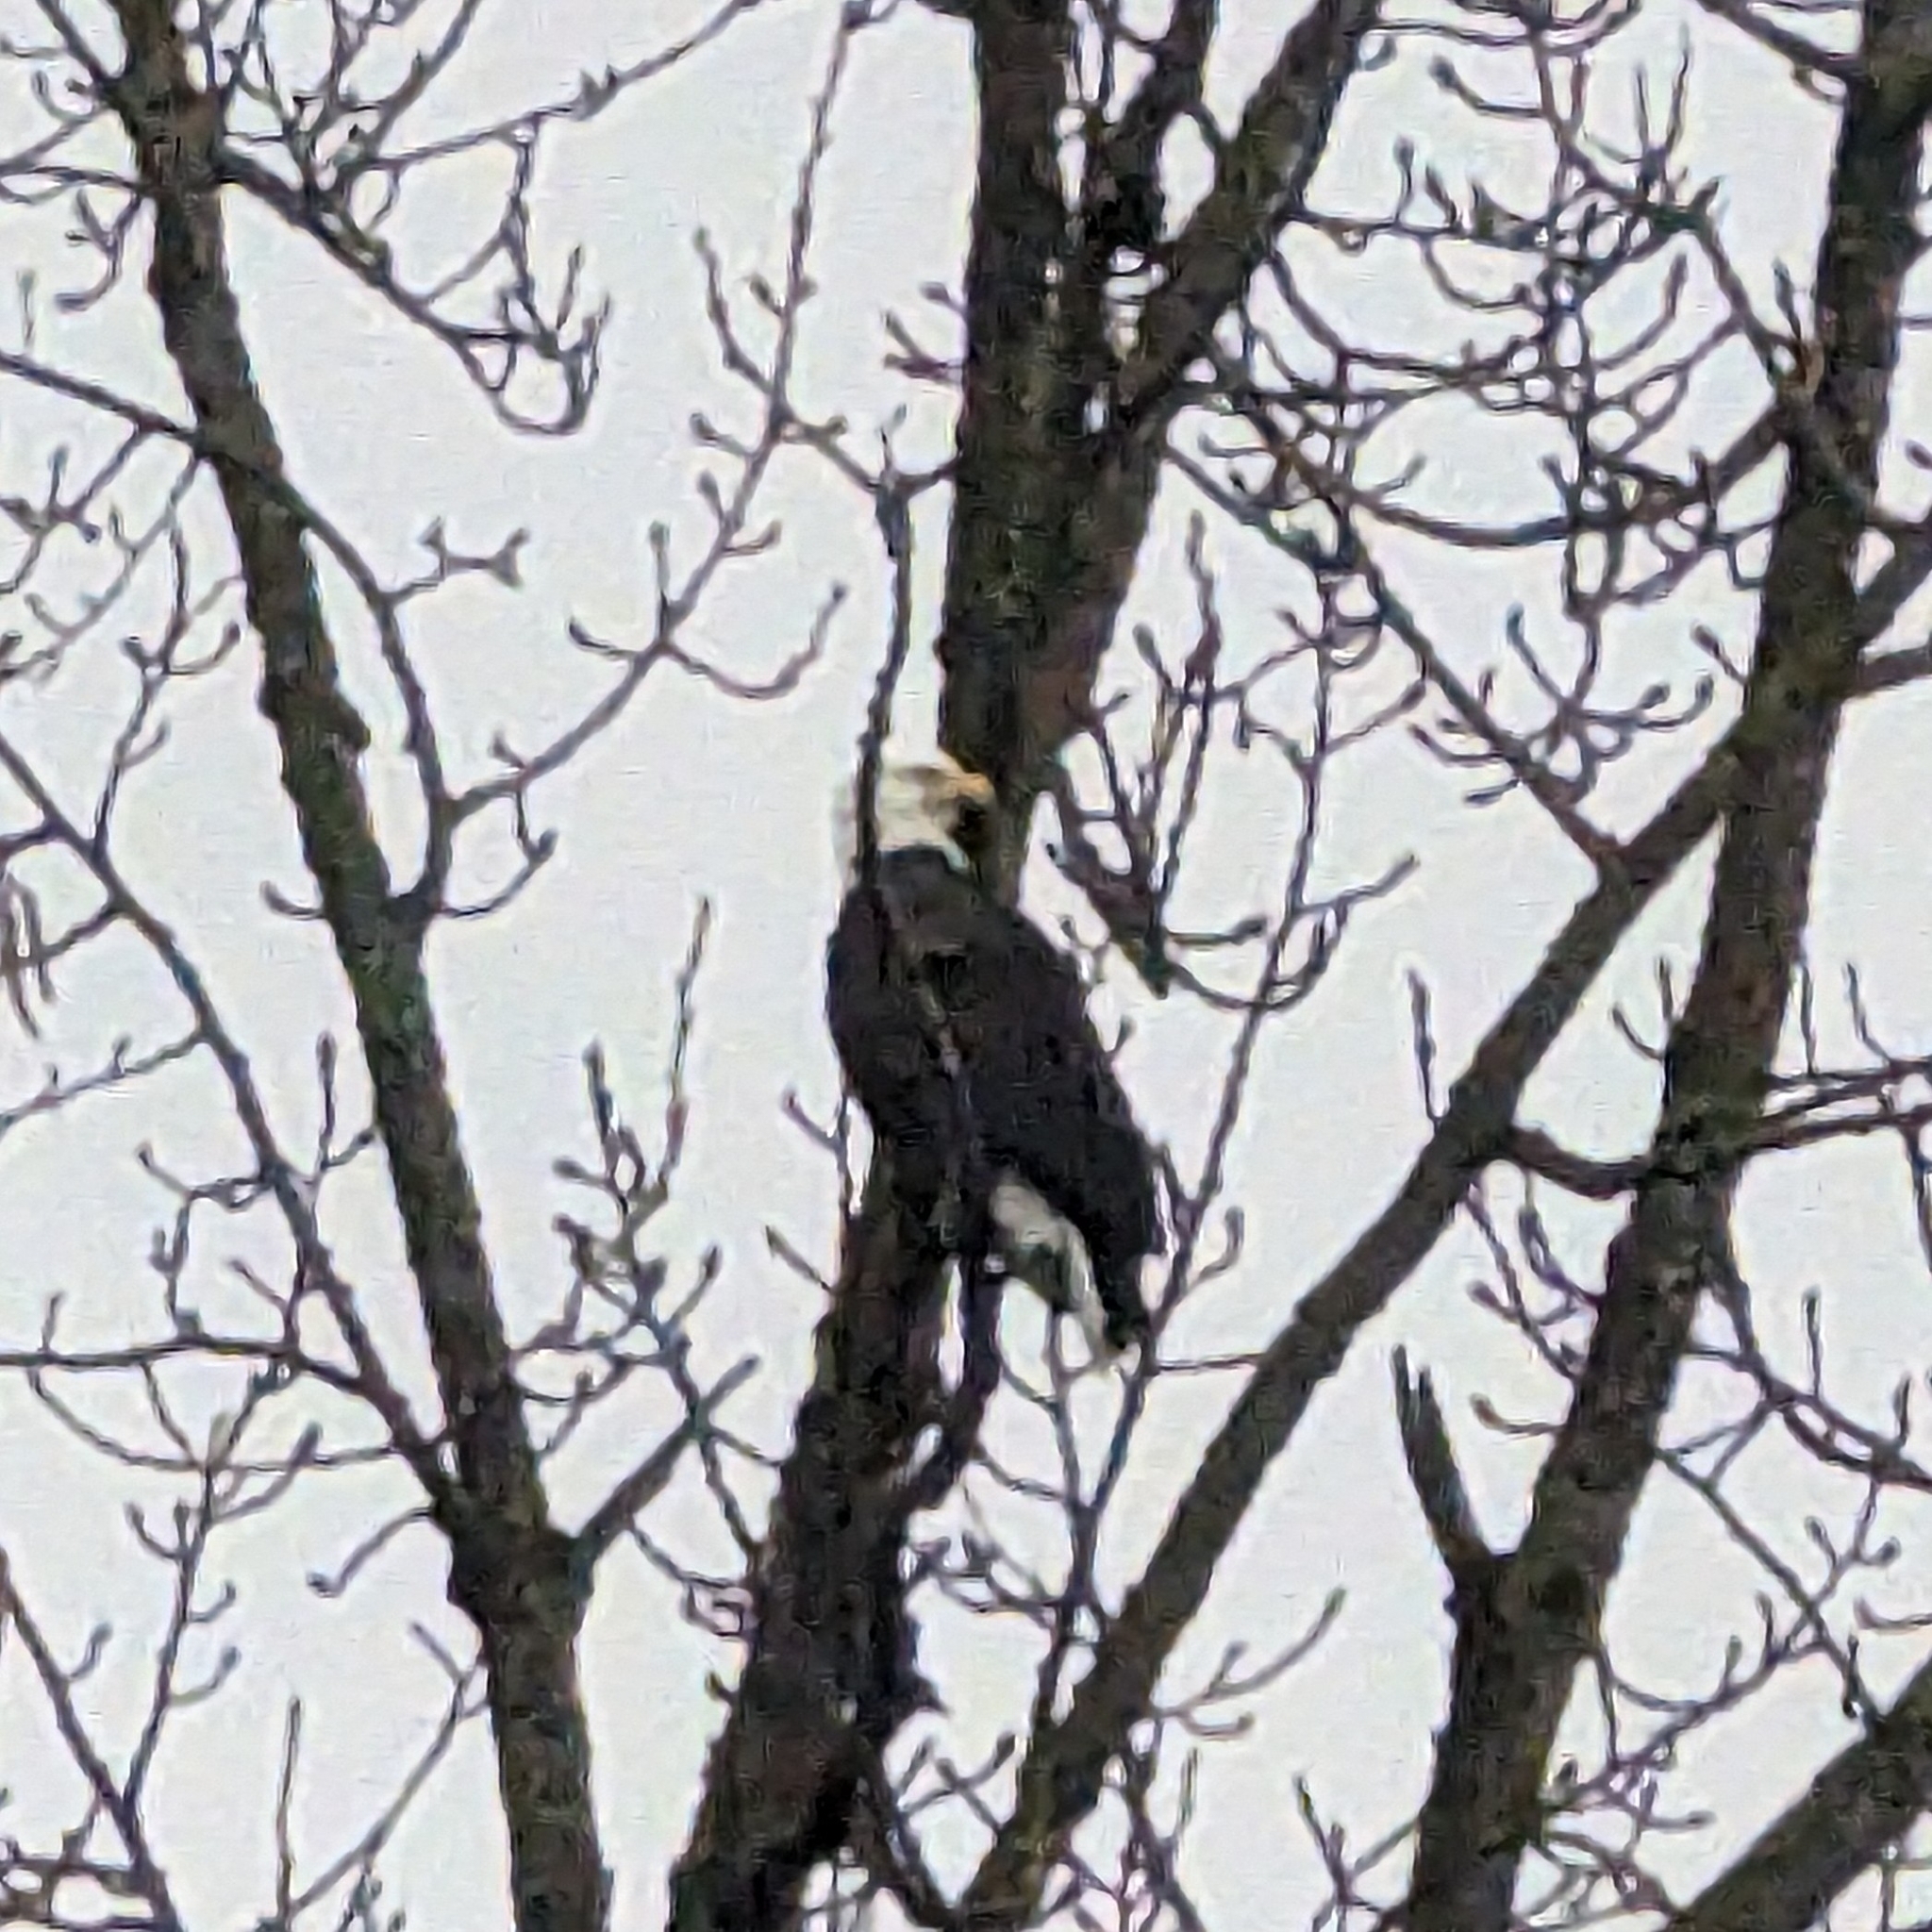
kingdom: Animalia
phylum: Chordata
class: Aves
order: Accipitriformes
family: Accipitridae
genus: Haliaeetus
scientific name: Haliaeetus leucocephalus
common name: Bald eagle
